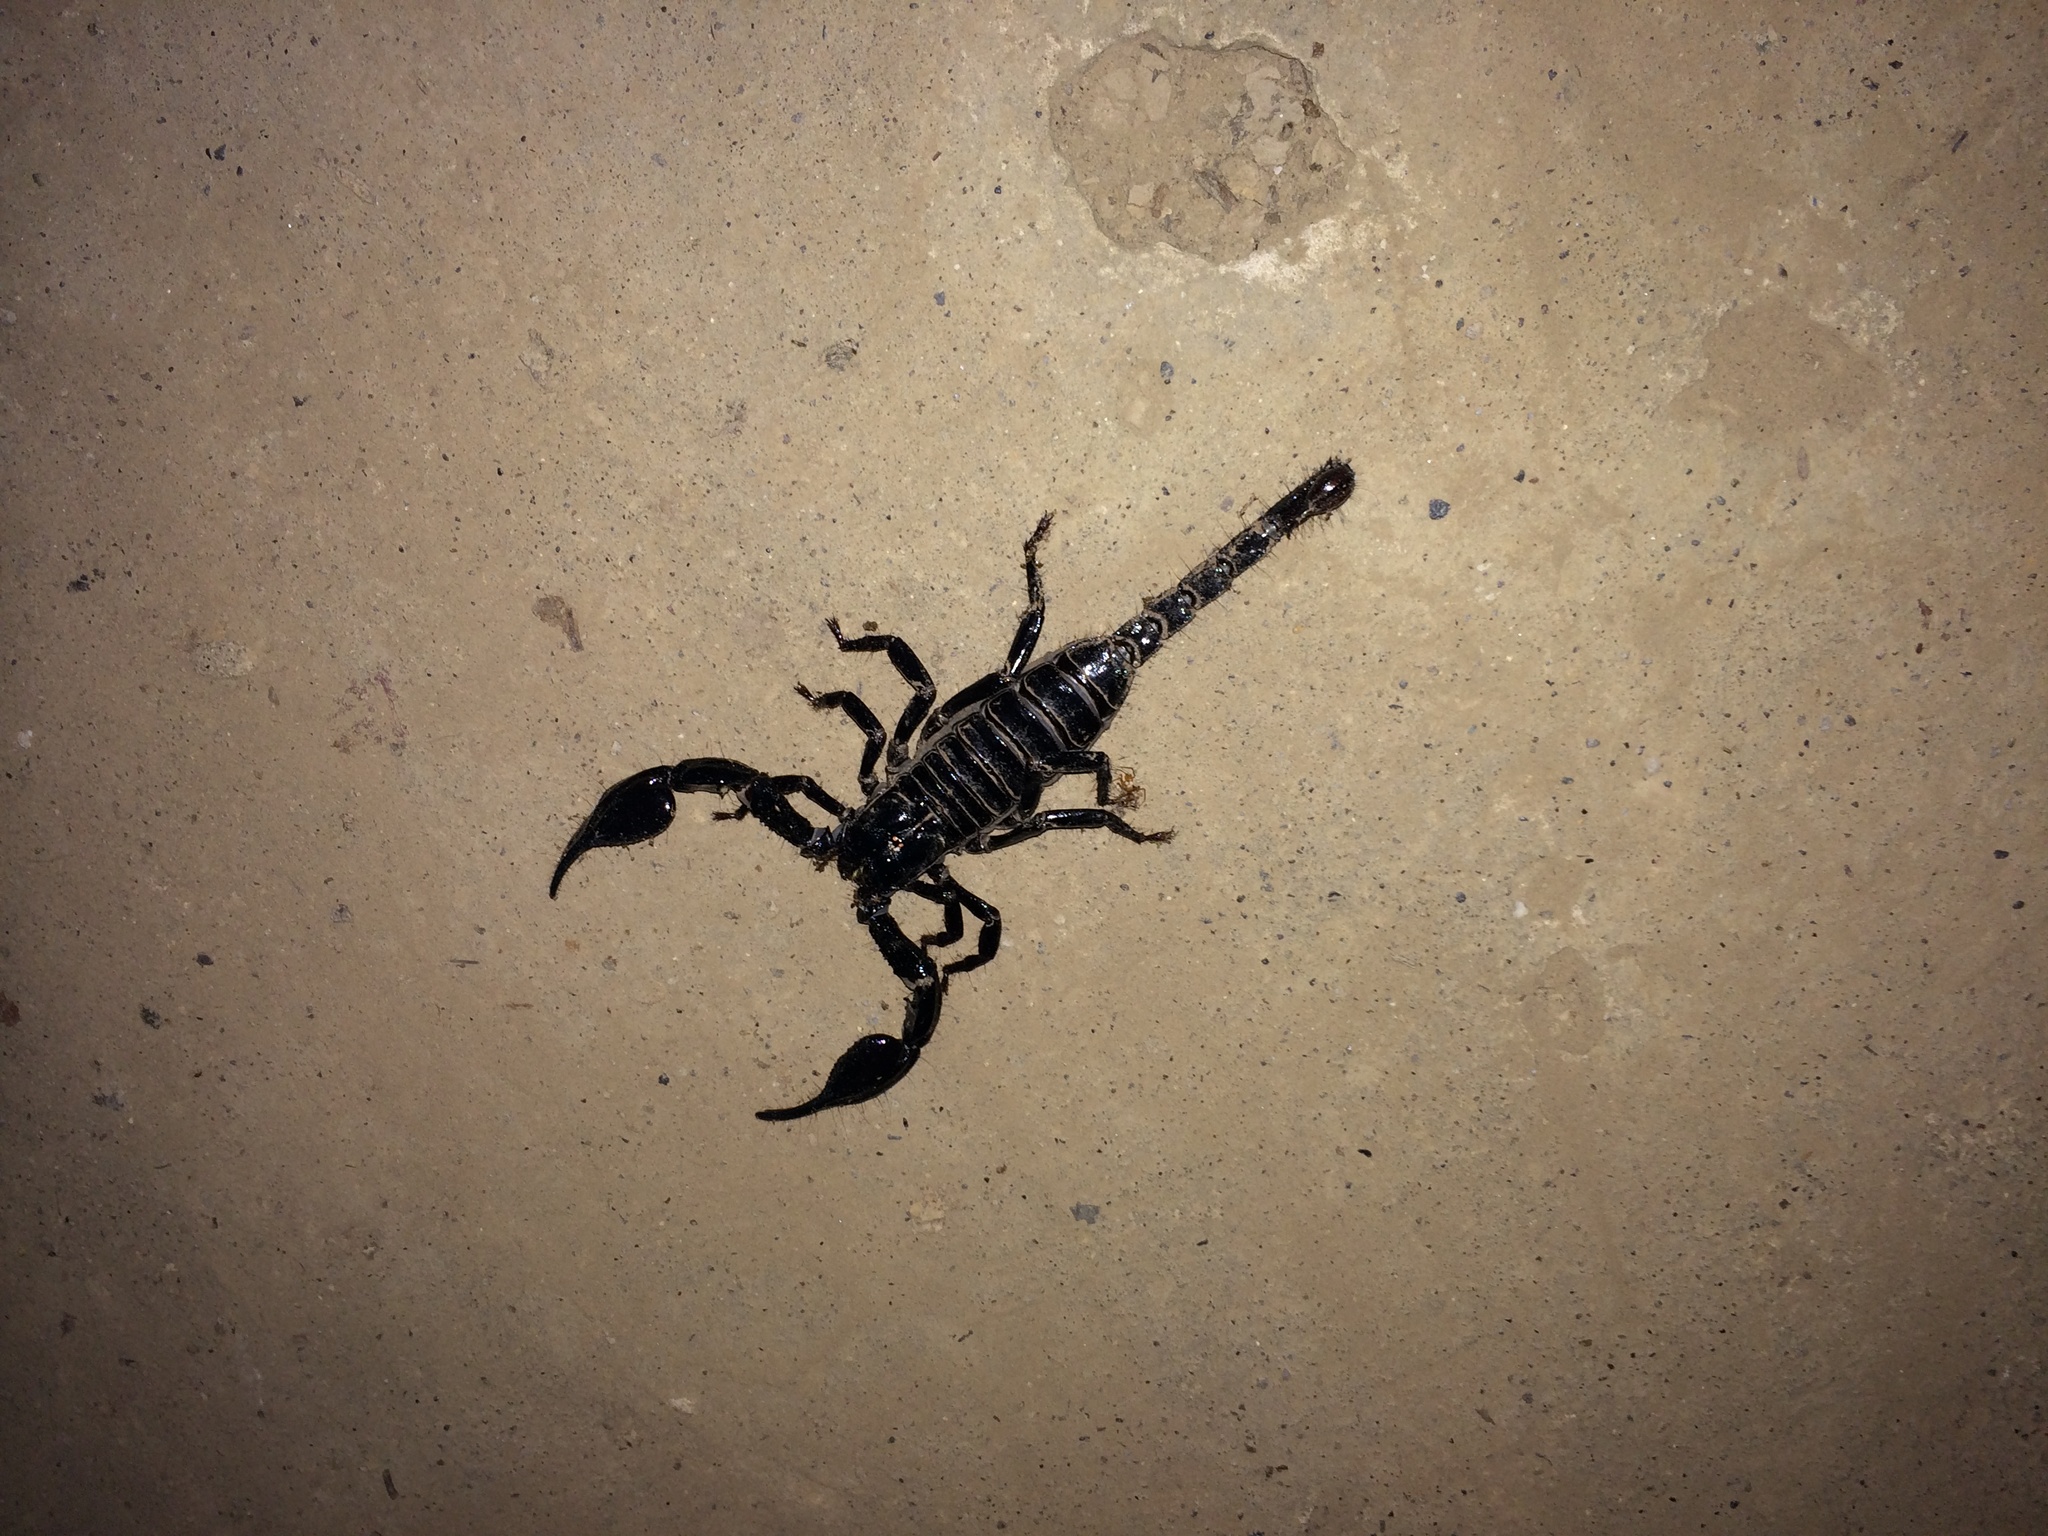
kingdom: Animalia
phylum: Arthropoda
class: Arachnida
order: Scorpiones
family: Scorpionidae
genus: Heterometrus
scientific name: Heterometrus longimanus
